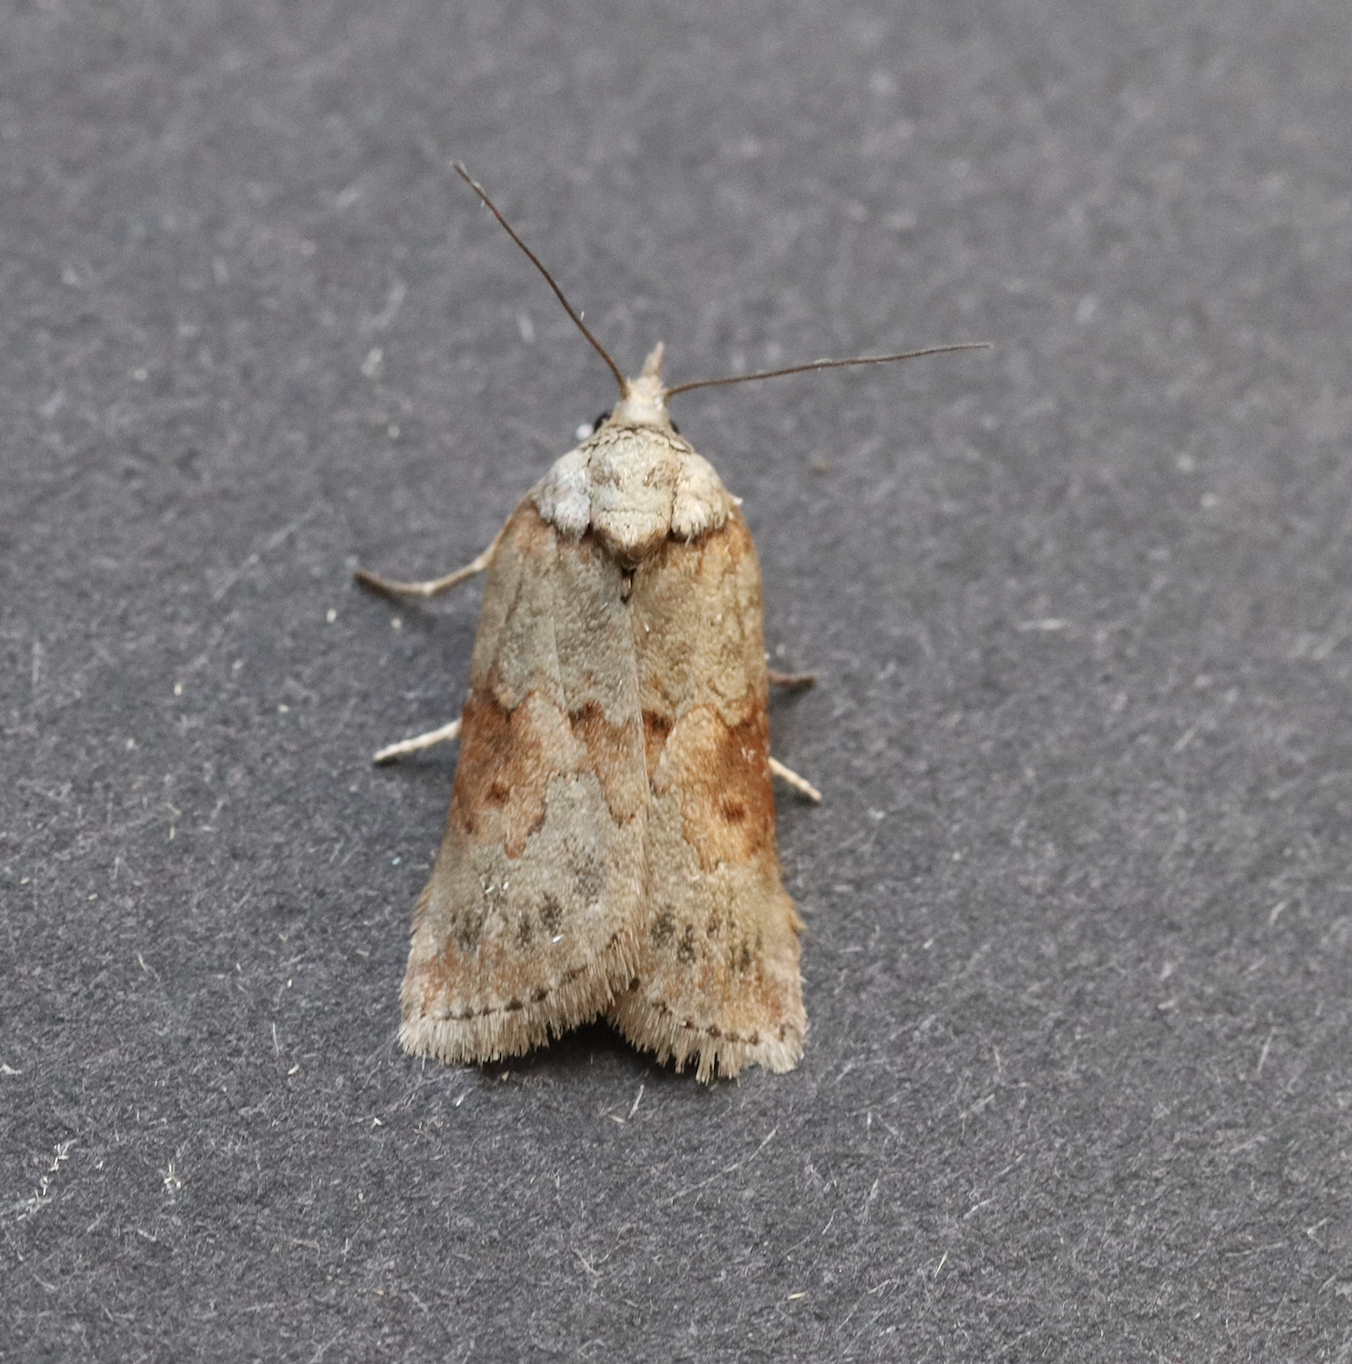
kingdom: Animalia
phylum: Arthropoda
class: Insecta
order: Lepidoptera
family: Nolidae
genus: Nycteola
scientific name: Nycteola revayana
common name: Oak nycteoline
